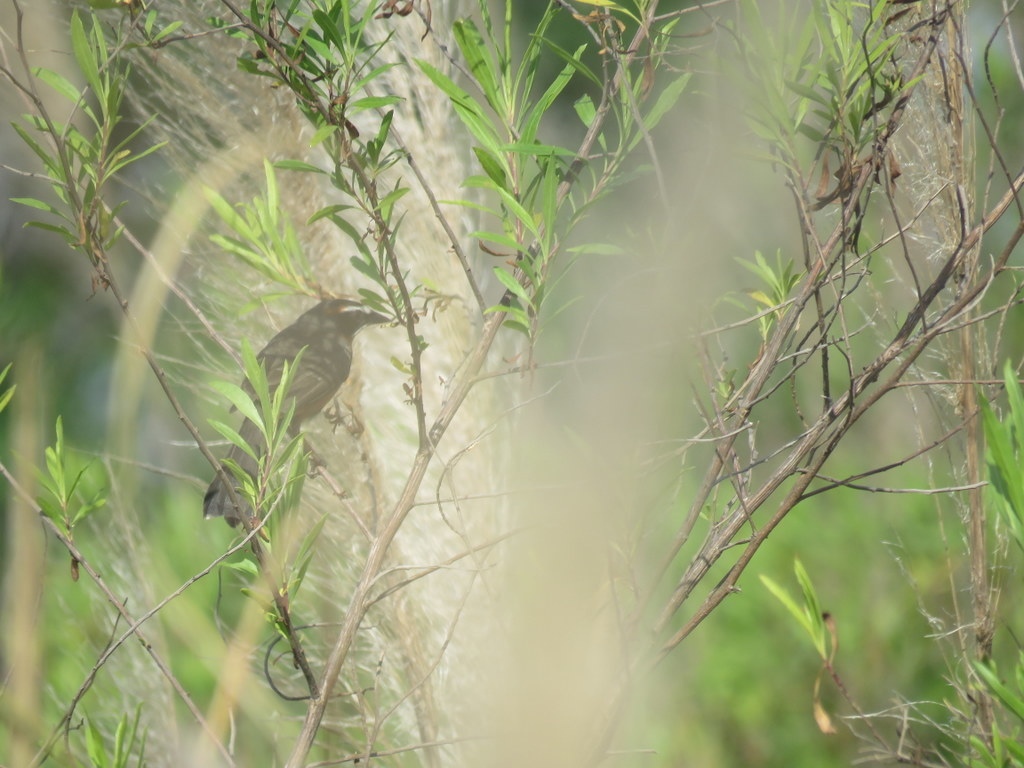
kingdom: Animalia
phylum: Chordata
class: Aves
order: Passeriformes
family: Thraupidae
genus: Poospiza
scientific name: Poospiza nigrorufa
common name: Black-and-rufous warbling finch
